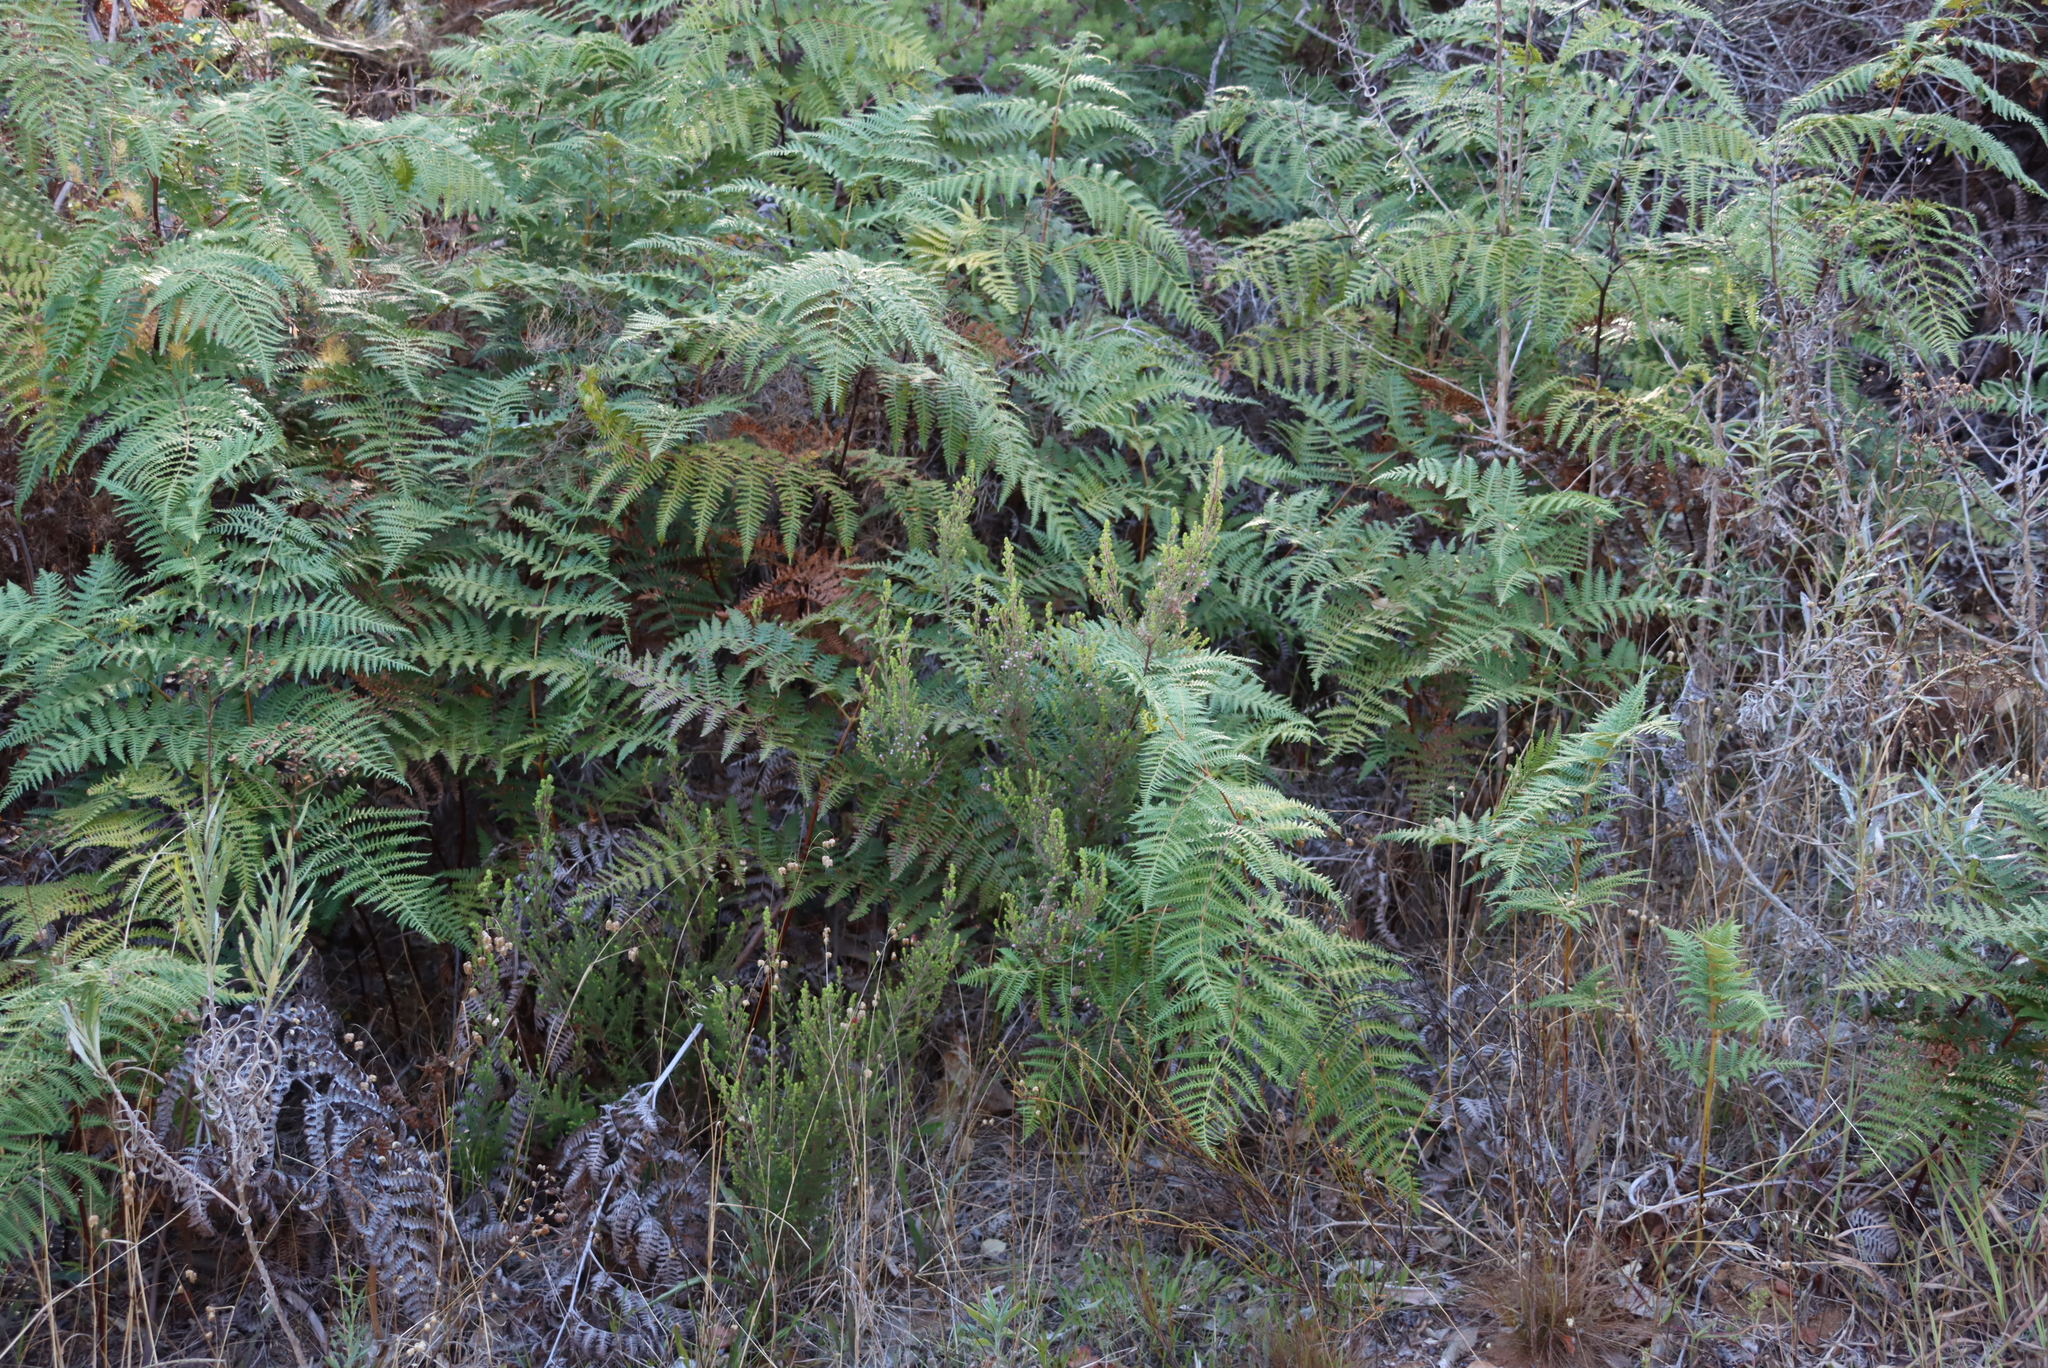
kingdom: Plantae
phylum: Tracheophyta
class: Magnoliopsida
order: Ericales
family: Ericaceae
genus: Erica
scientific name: Erica hirtiflora
